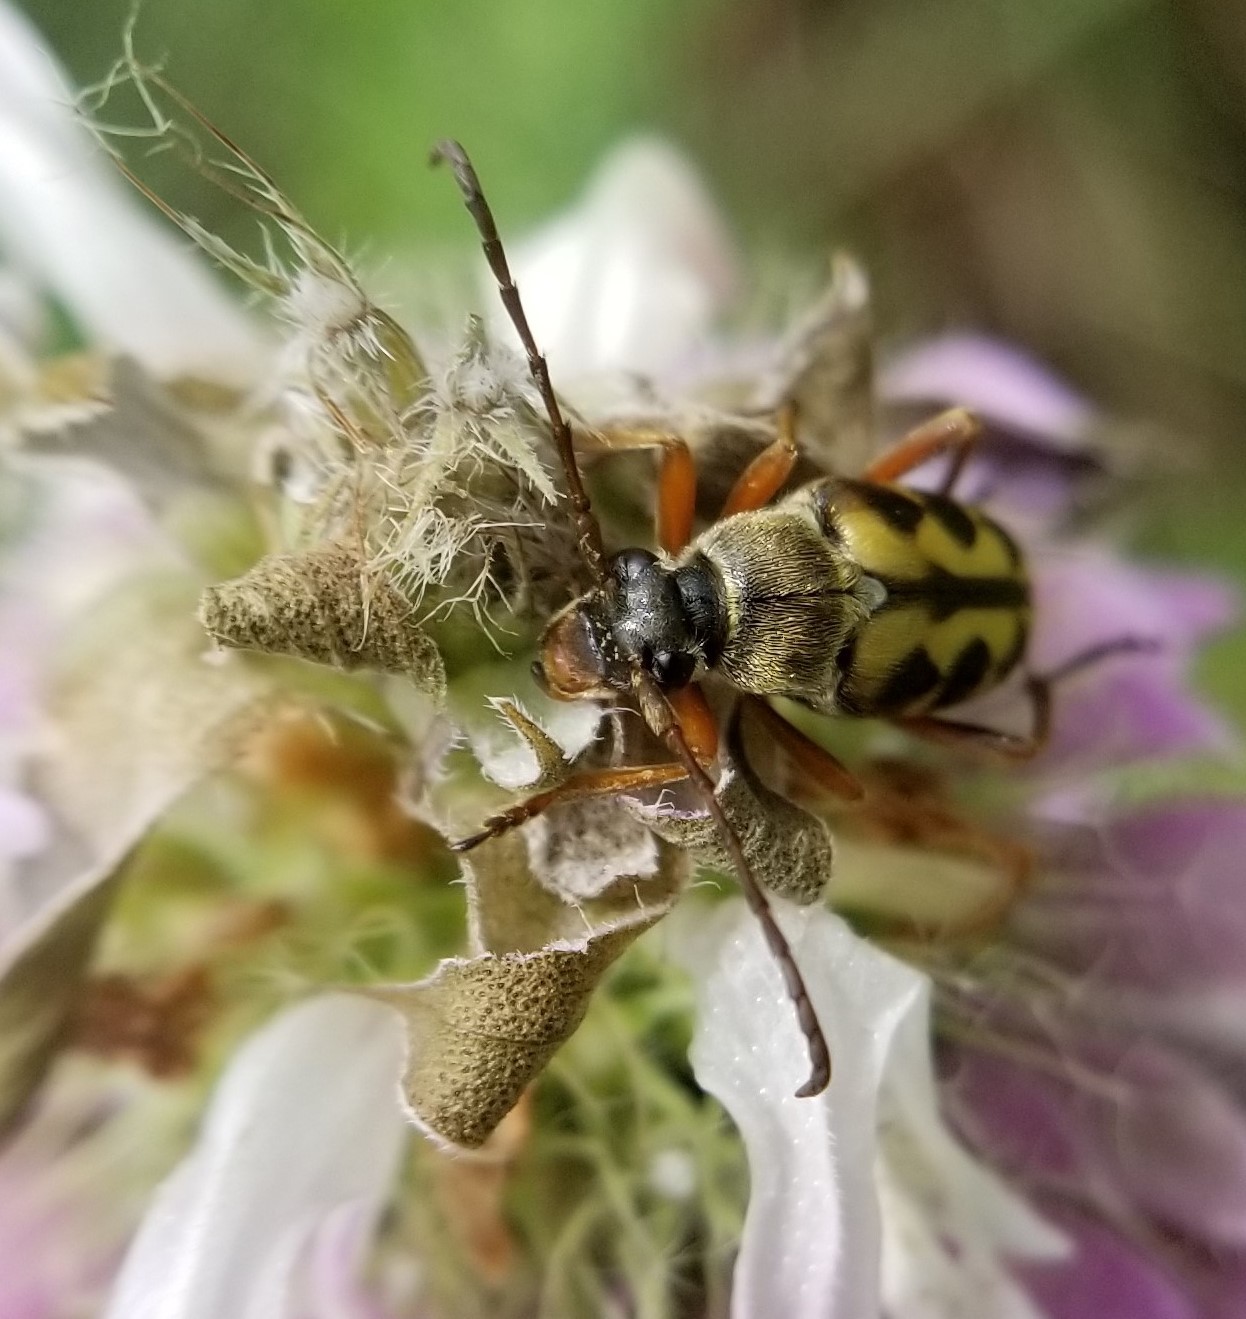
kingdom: Animalia
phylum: Arthropoda
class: Insecta
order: Coleoptera
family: Cerambycidae
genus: Typocerus
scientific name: Typocerus octonotatus
